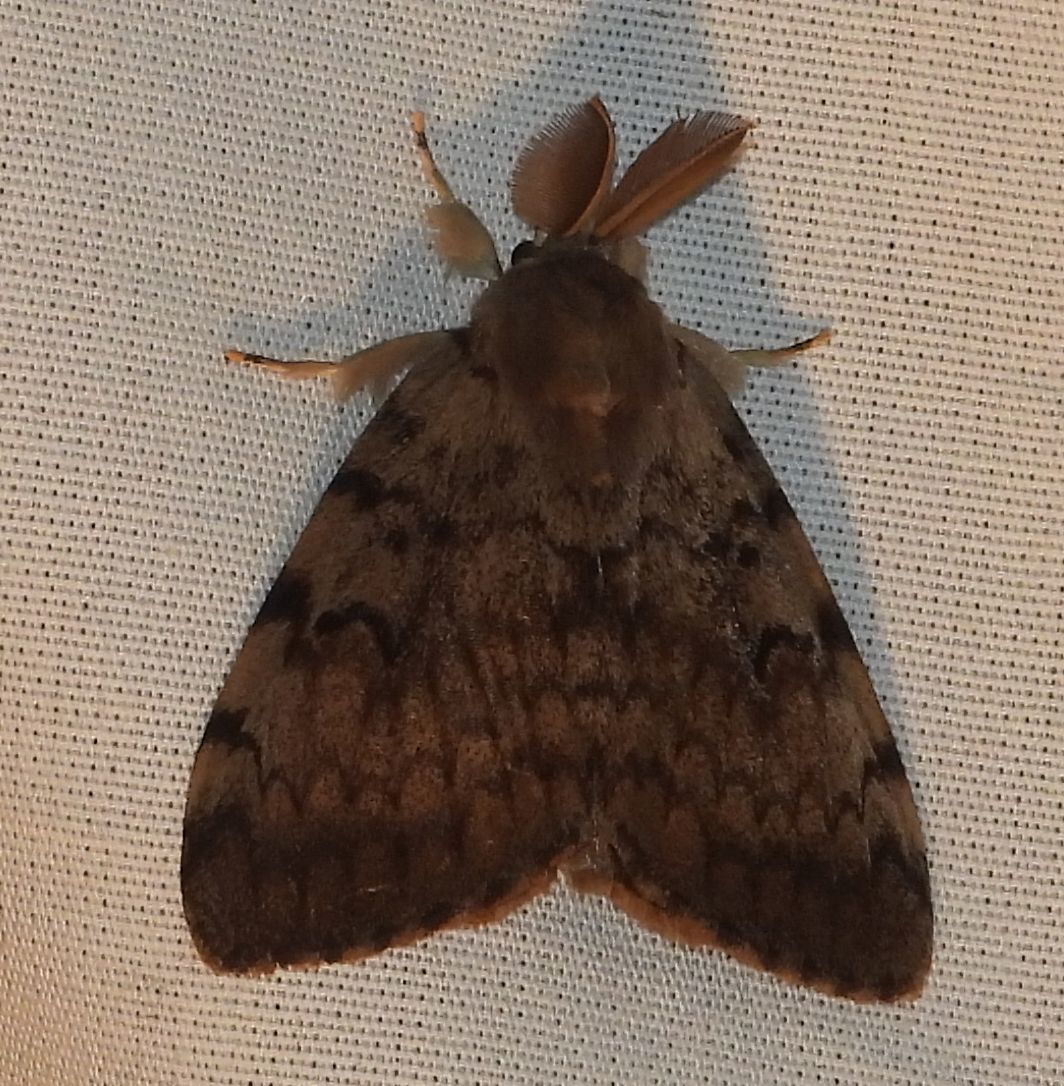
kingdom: Animalia
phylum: Arthropoda
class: Insecta
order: Lepidoptera
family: Erebidae
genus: Lymantria
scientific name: Lymantria dispar
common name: Gypsy moth
